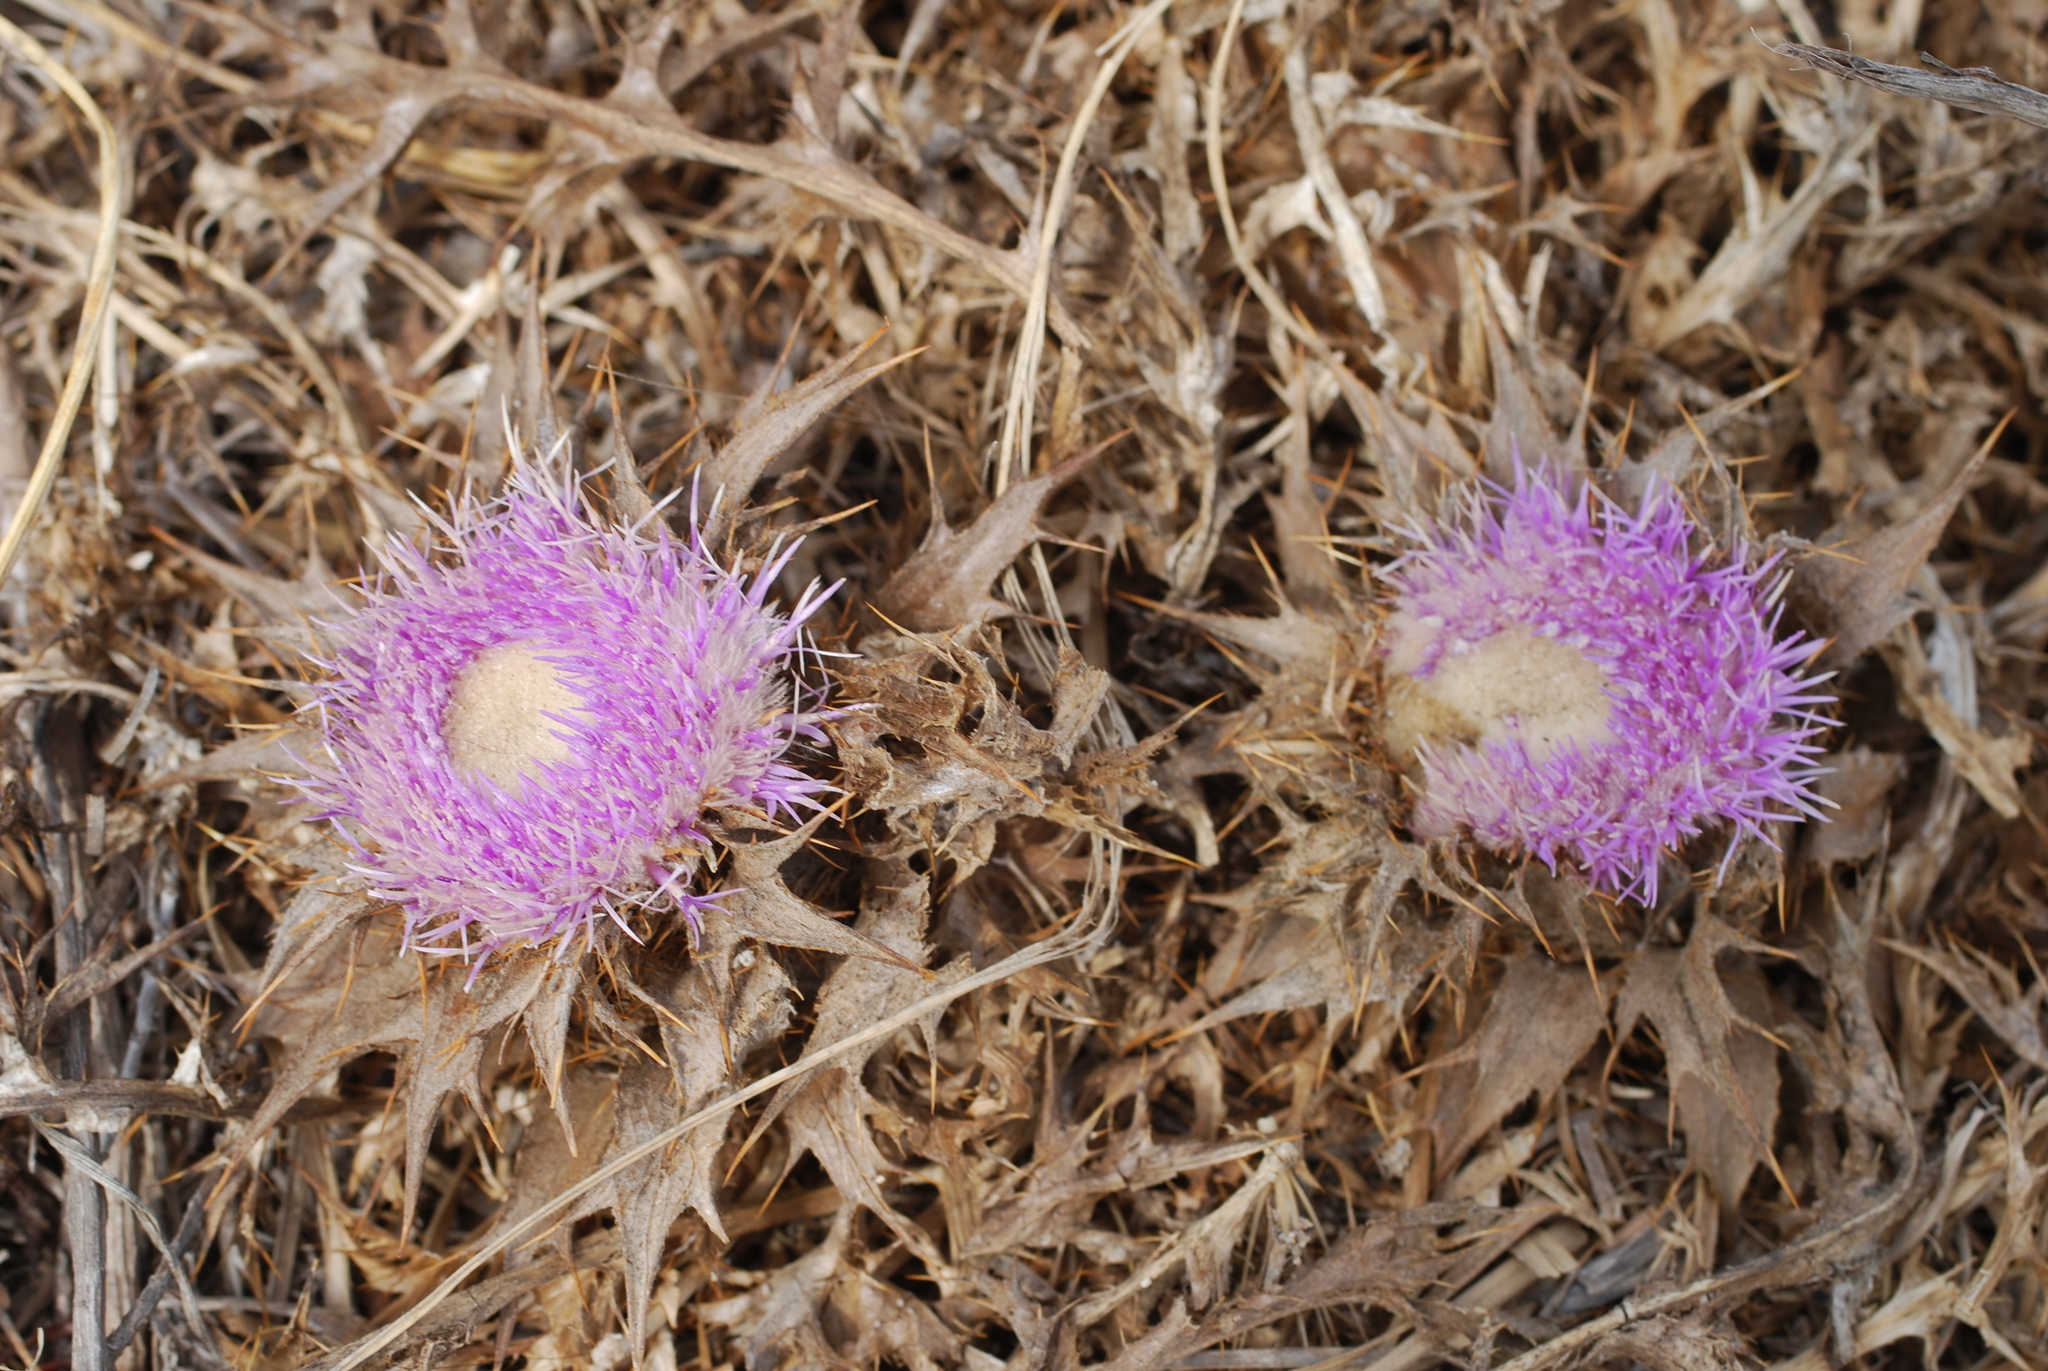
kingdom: Plantae
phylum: Tracheophyta
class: Magnoliopsida
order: Asterales
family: Asteraceae
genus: Chamaeleon
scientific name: Chamaeleon gummifer
